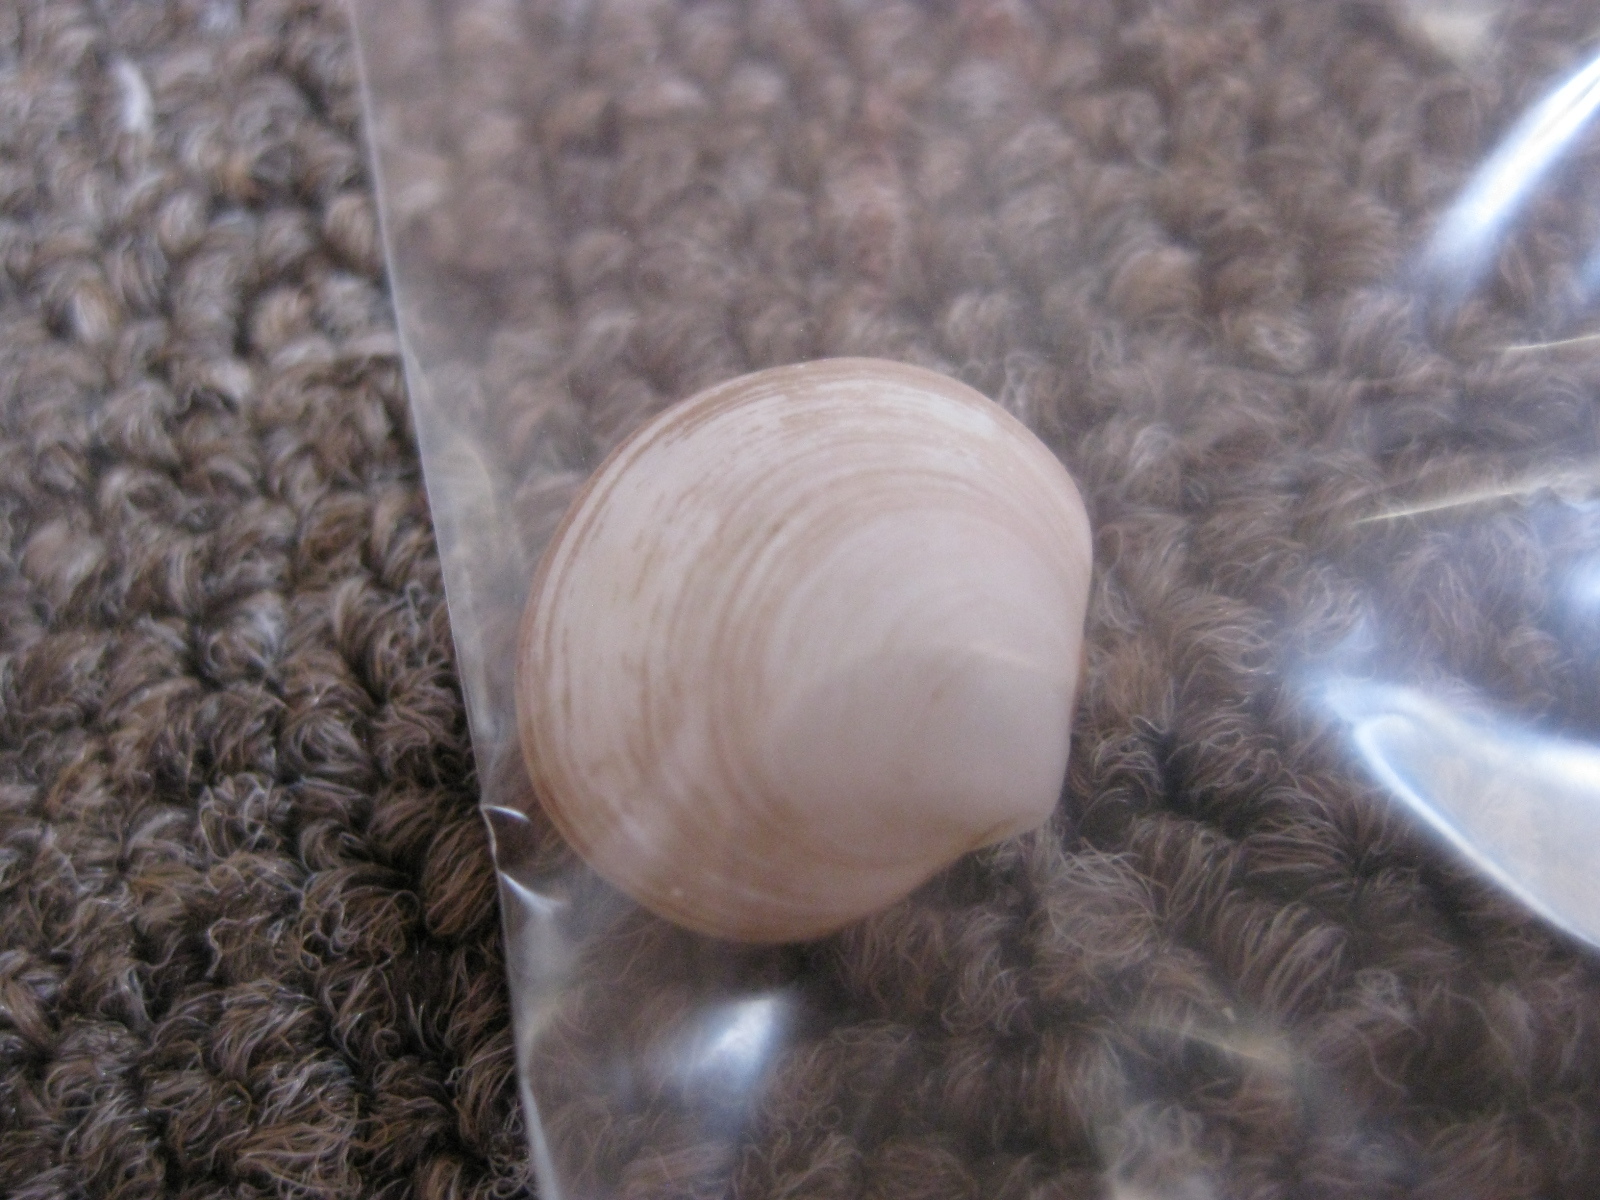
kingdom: Animalia
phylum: Mollusca
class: Bivalvia
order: Venerida
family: Ungulinidae
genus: Zemysia
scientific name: Zemysia zelandica
